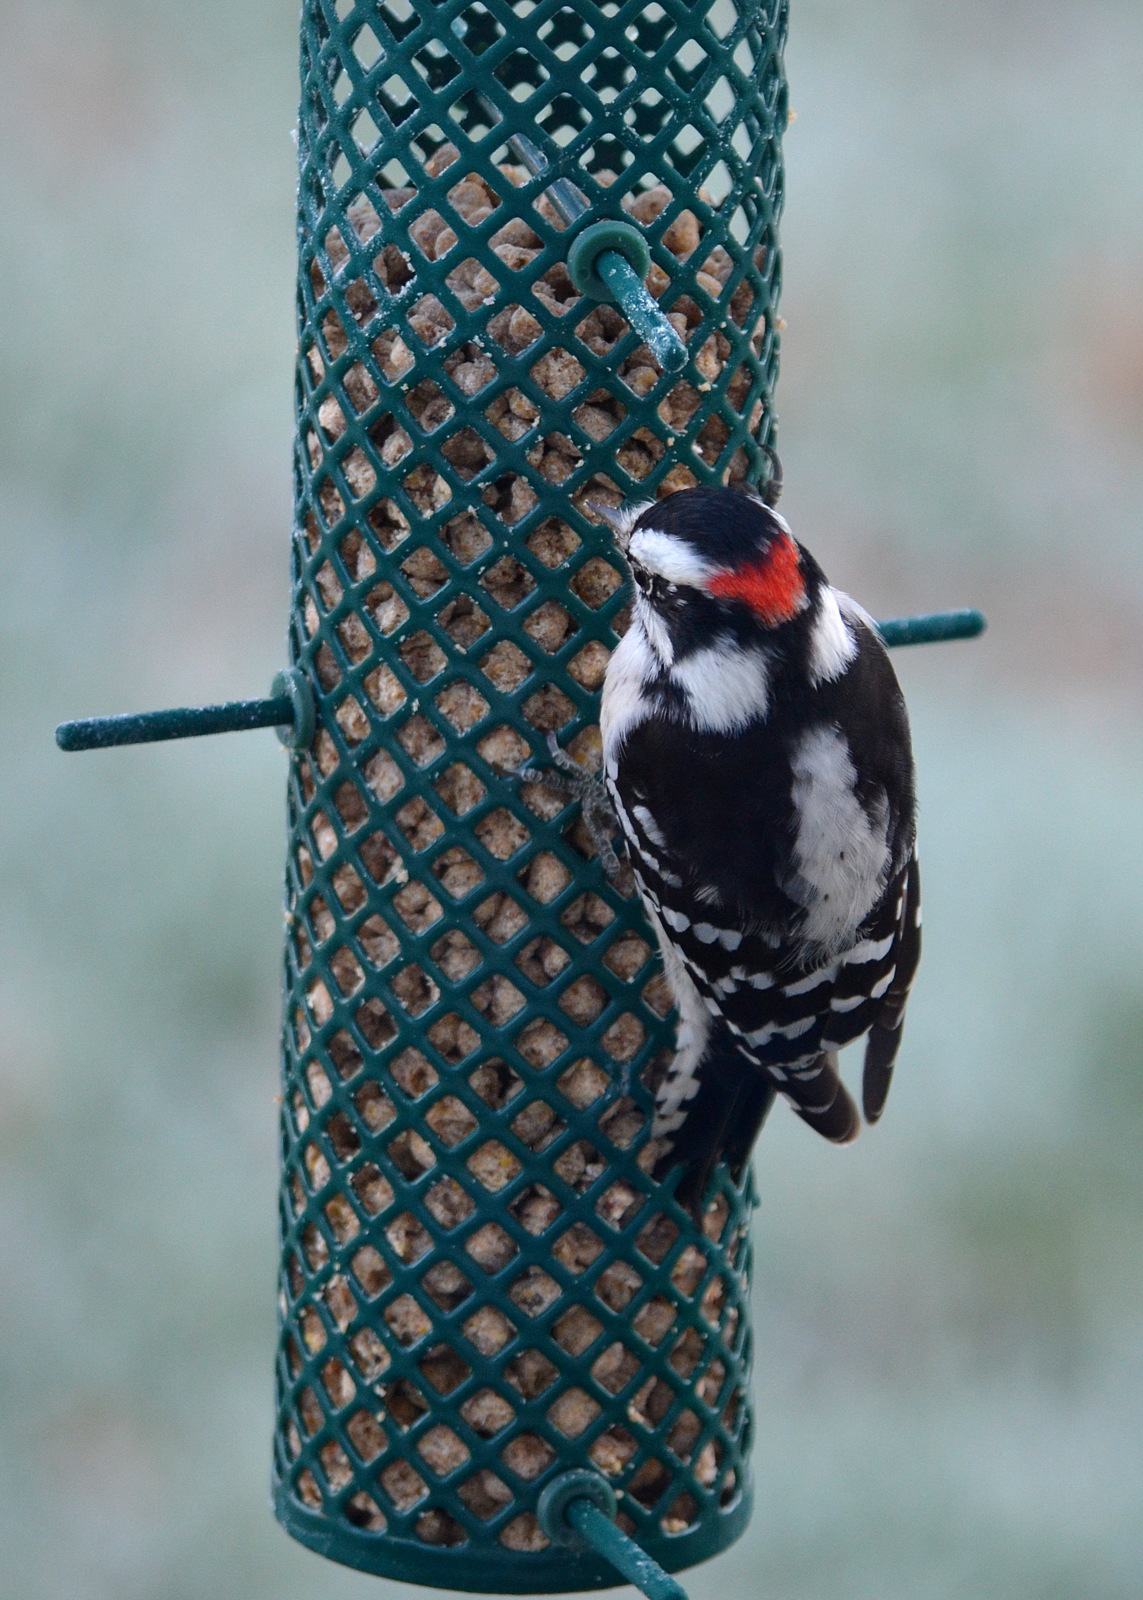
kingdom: Animalia
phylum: Chordata
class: Aves
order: Piciformes
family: Picidae
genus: Dryobates
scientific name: Dryobates pubescens
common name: Downy woodpecker
